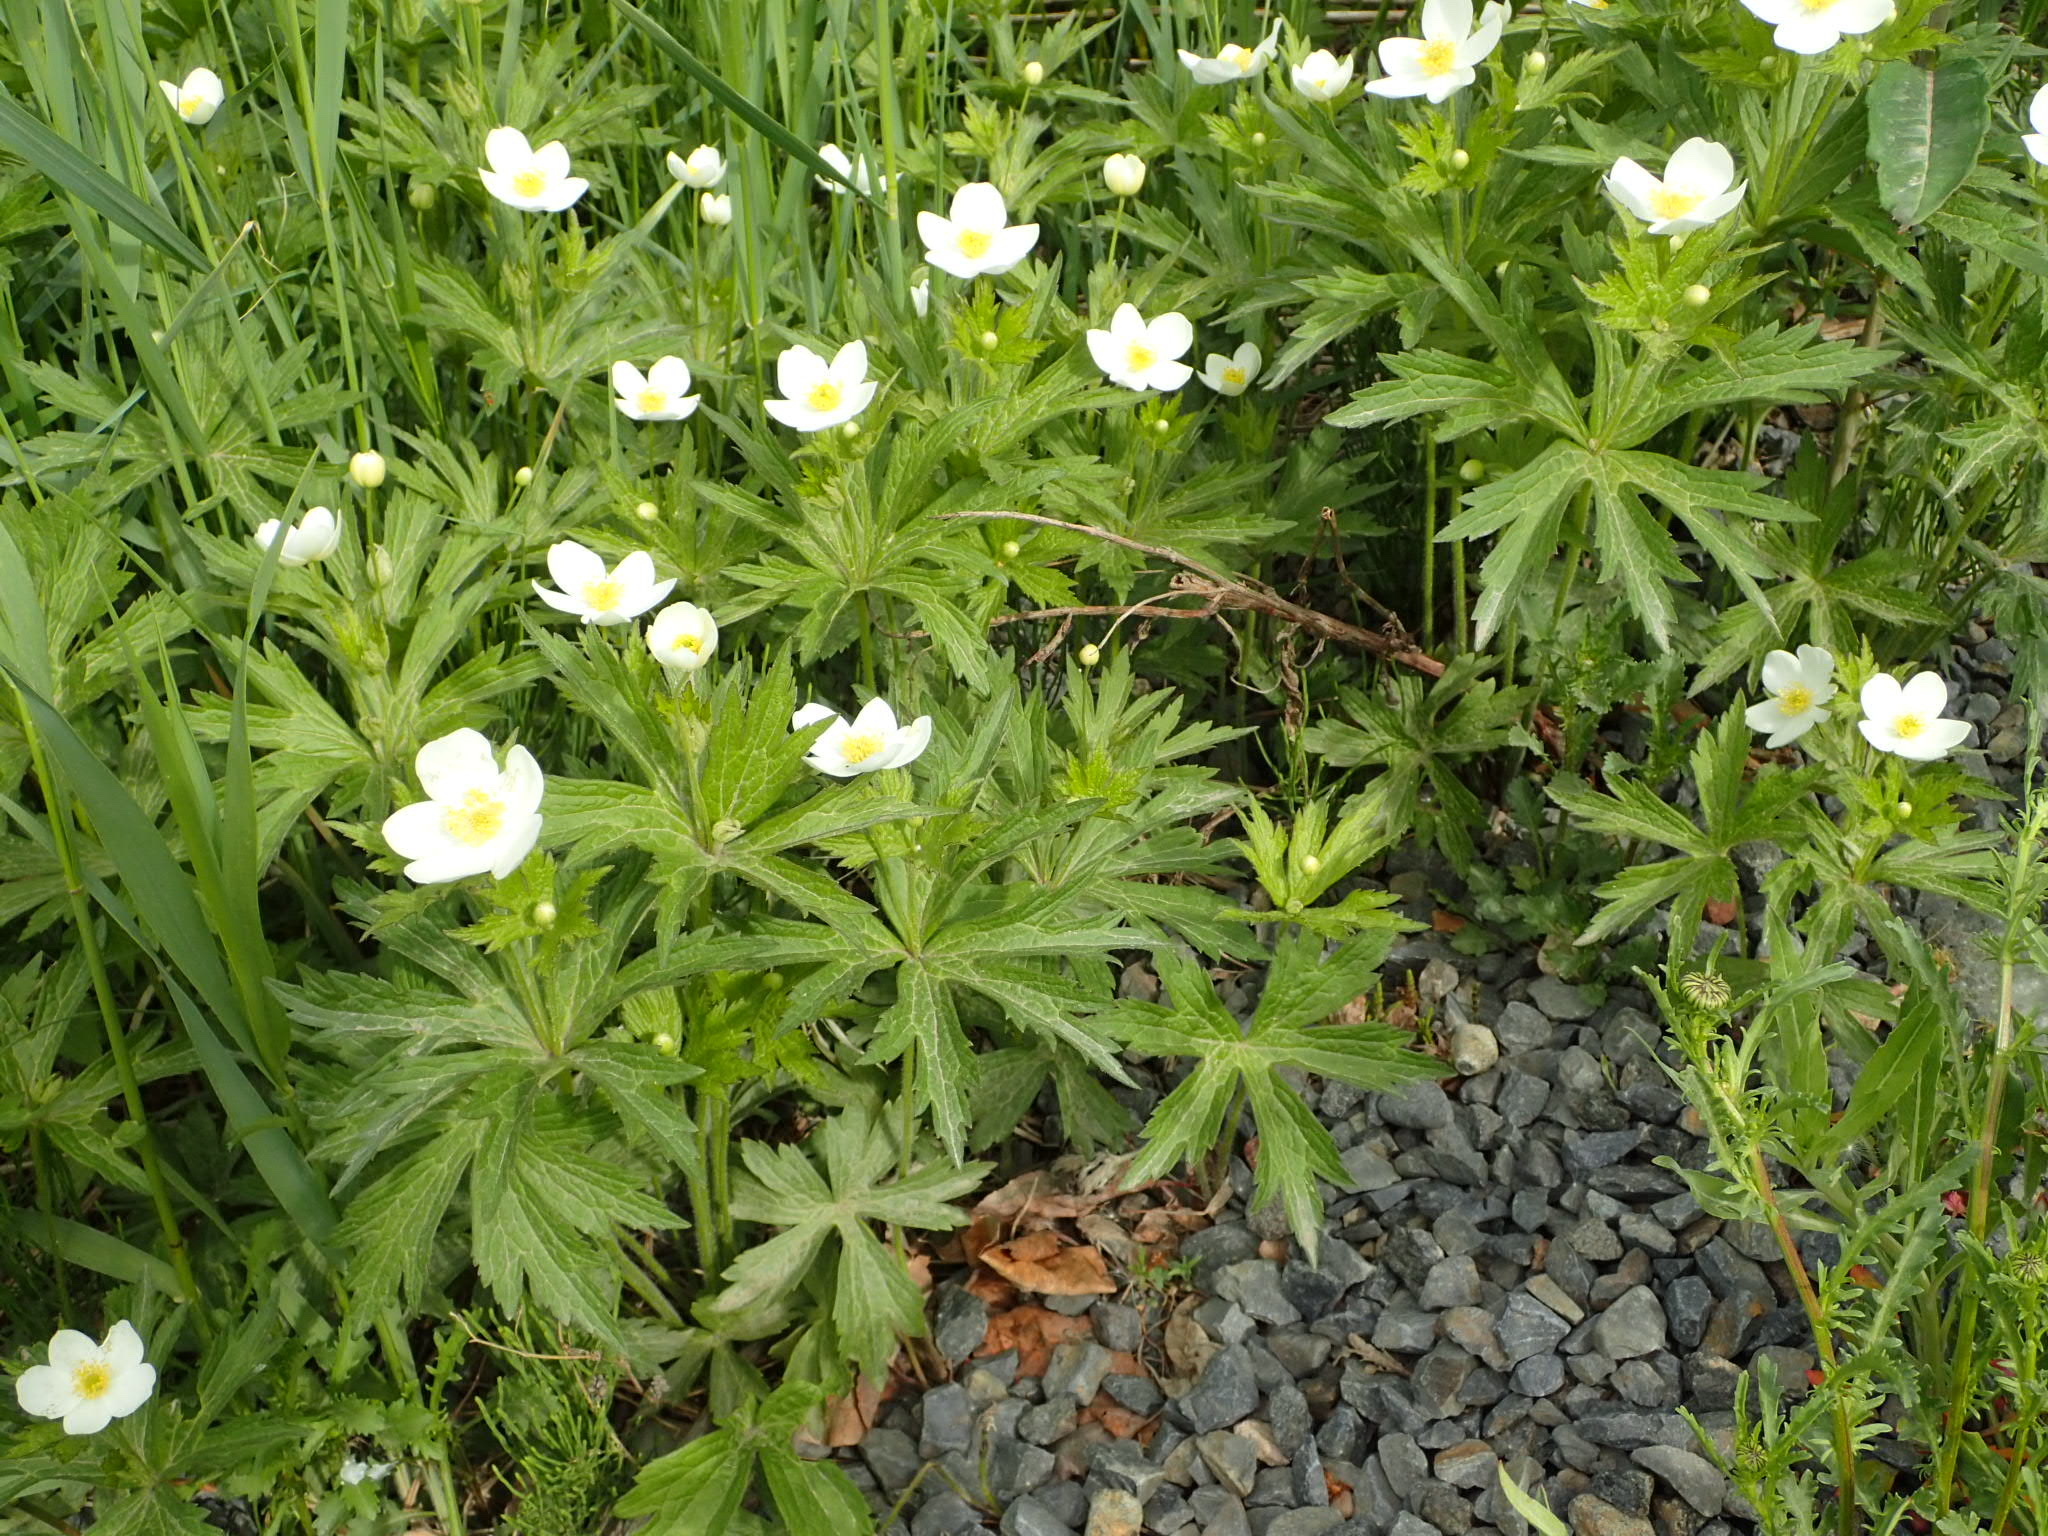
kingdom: Plantae
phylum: Tracheophyta
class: Magnoliopsida
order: Ranunculales
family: Ranunculaceae
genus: Anemonastrum
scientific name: Anemonastrum canadense
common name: Canada anemone
